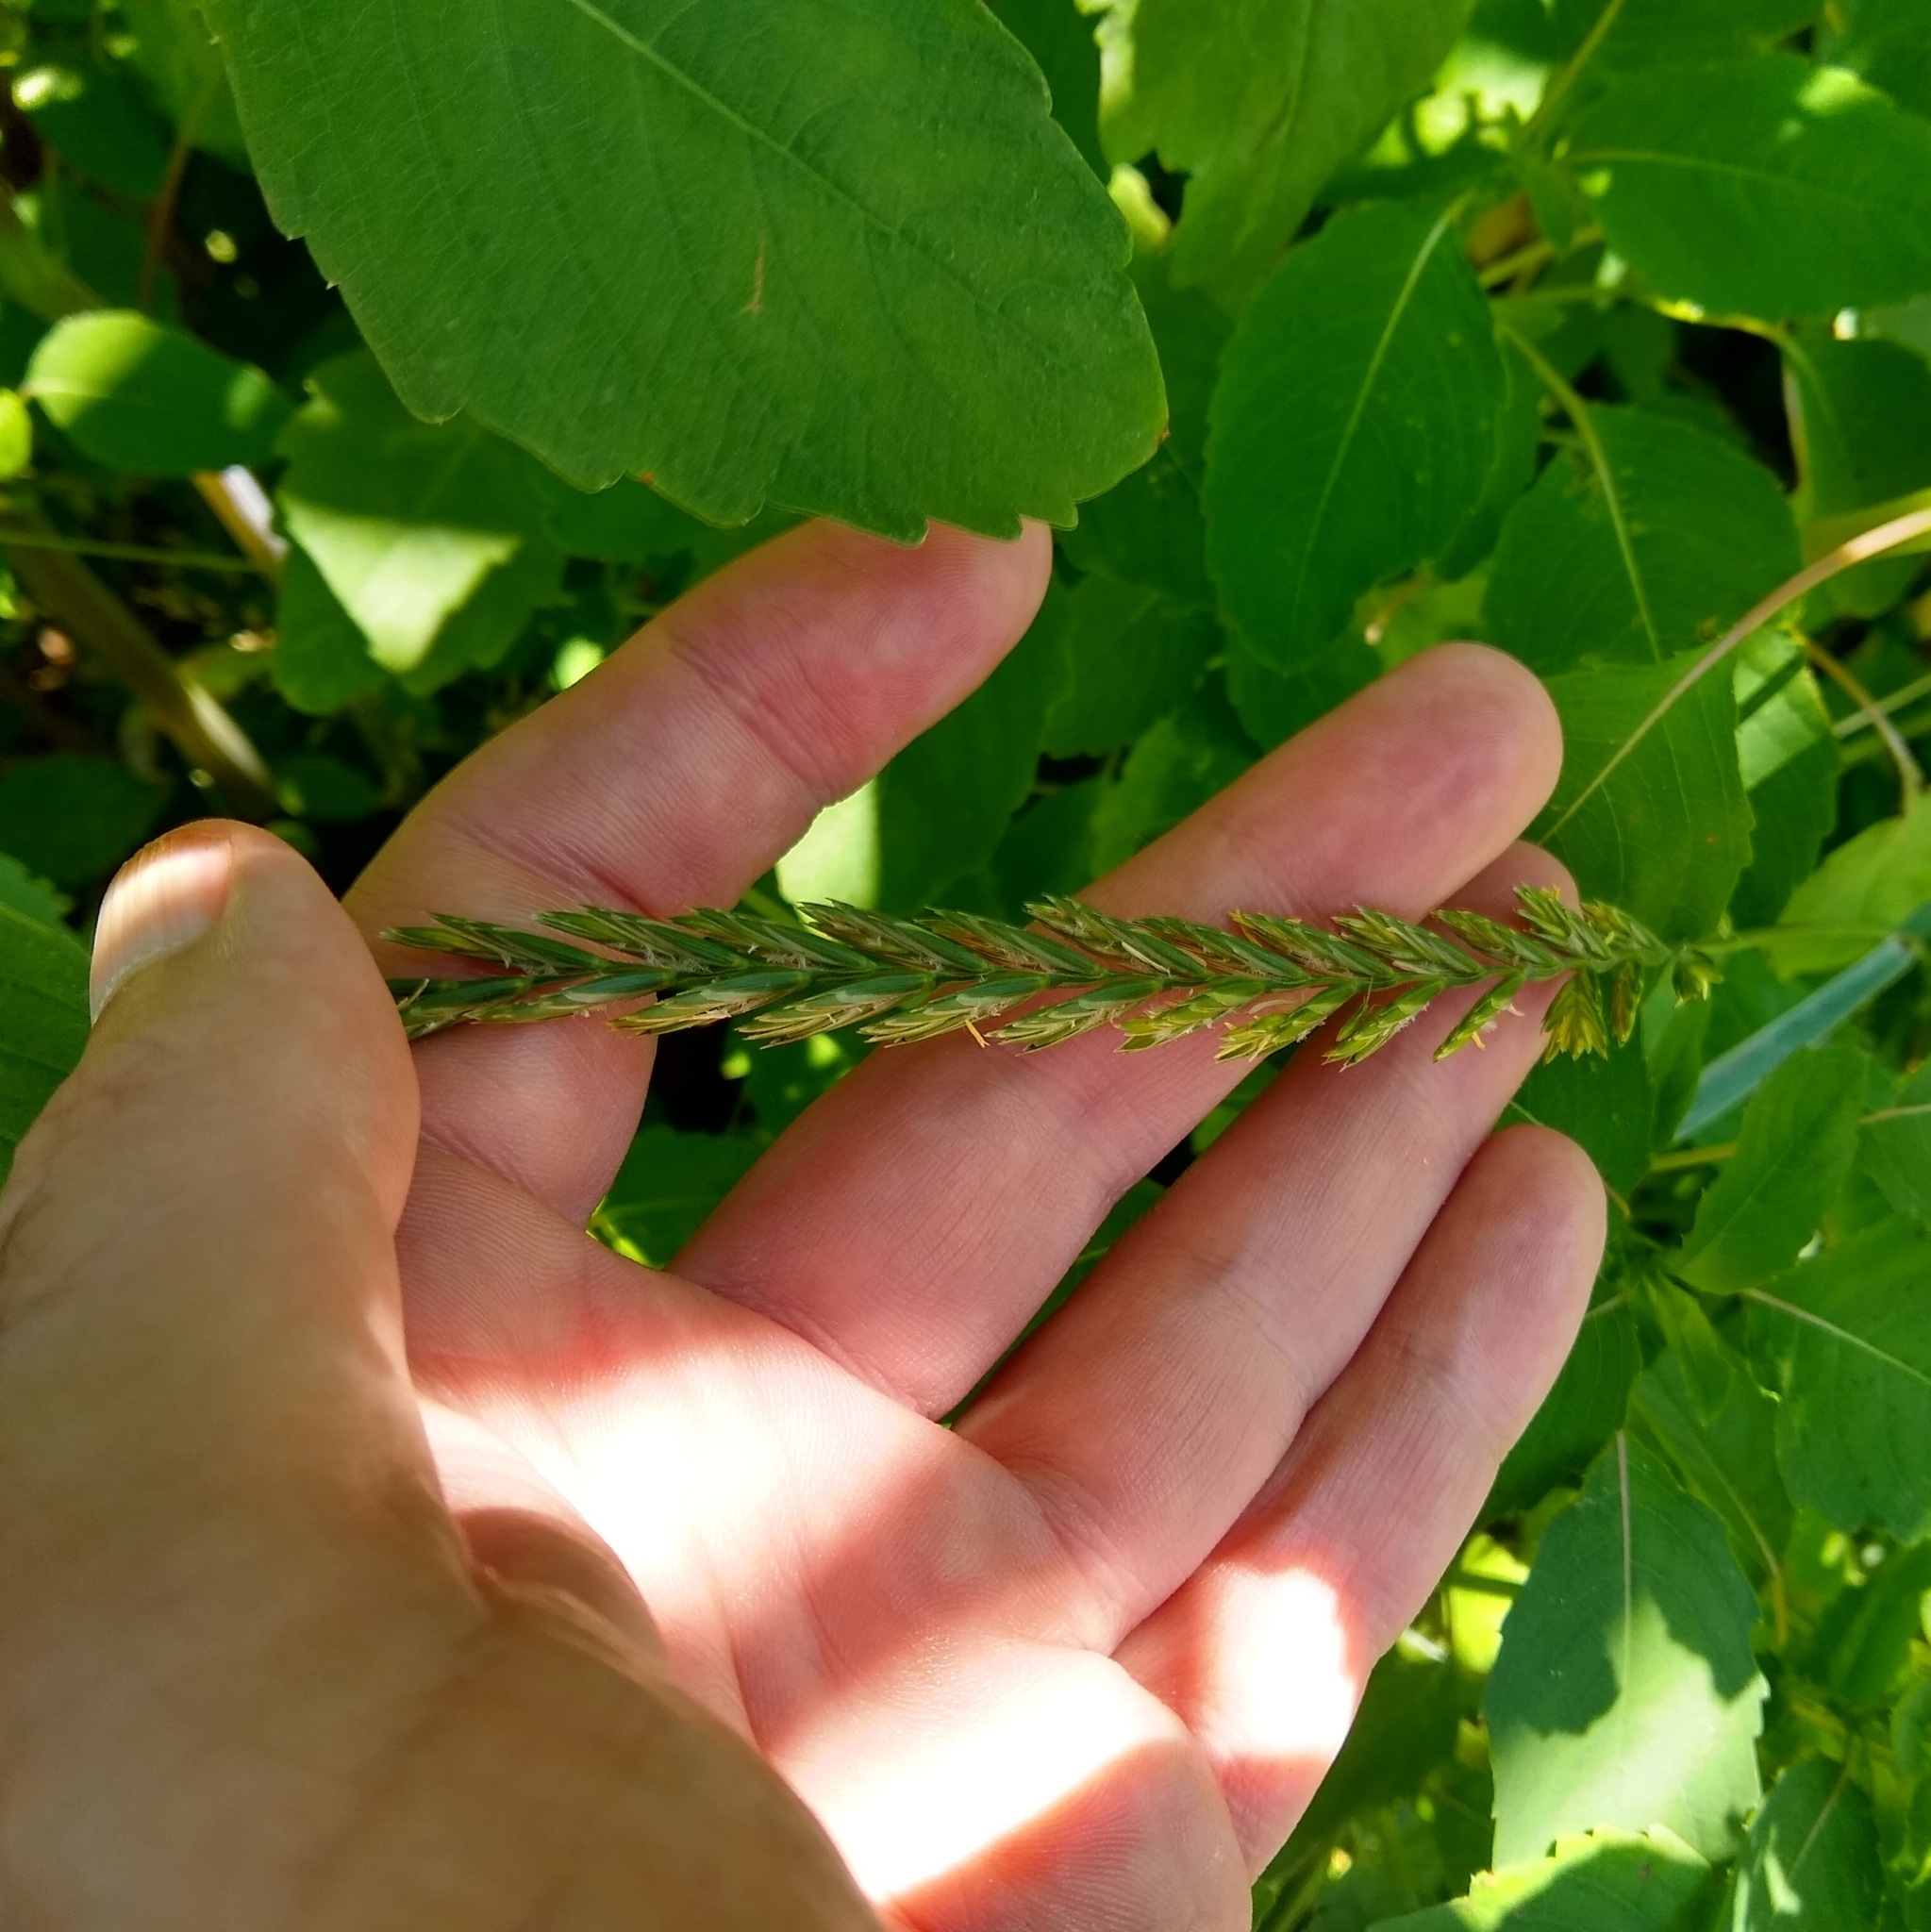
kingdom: Plantae
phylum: Tracheophyta
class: Liliopsida
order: Poales
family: Poaceae
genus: Elymus
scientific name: Elymus repens
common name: Quackgrass
